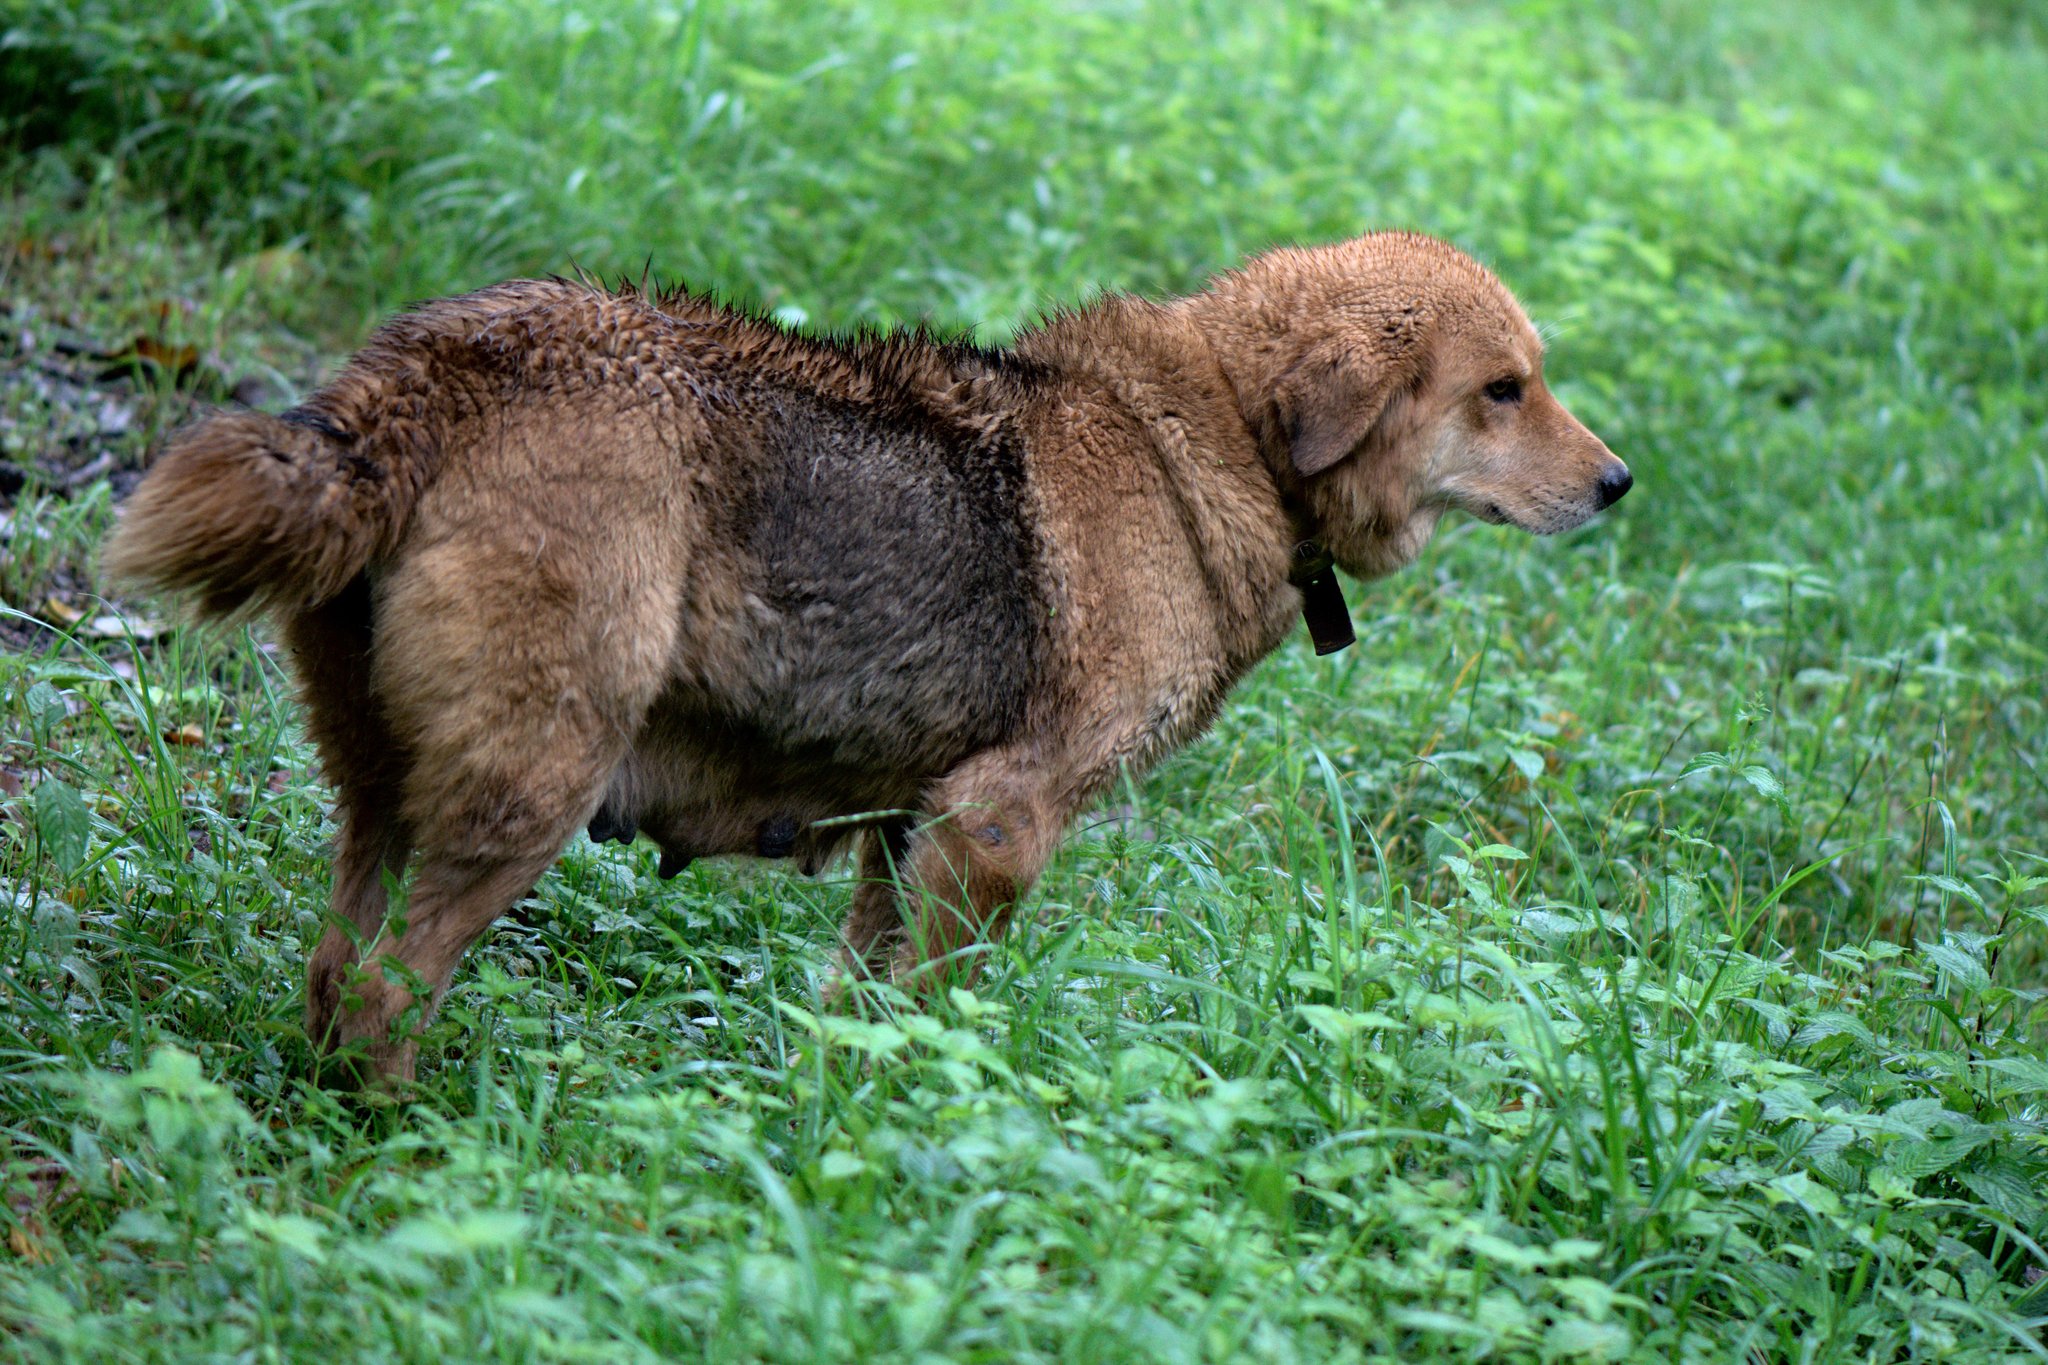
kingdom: Animalia
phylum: Chordata
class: Mammalia
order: Carnivora
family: Canidae
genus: Canis
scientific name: Canis lupus
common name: Gray wolf
